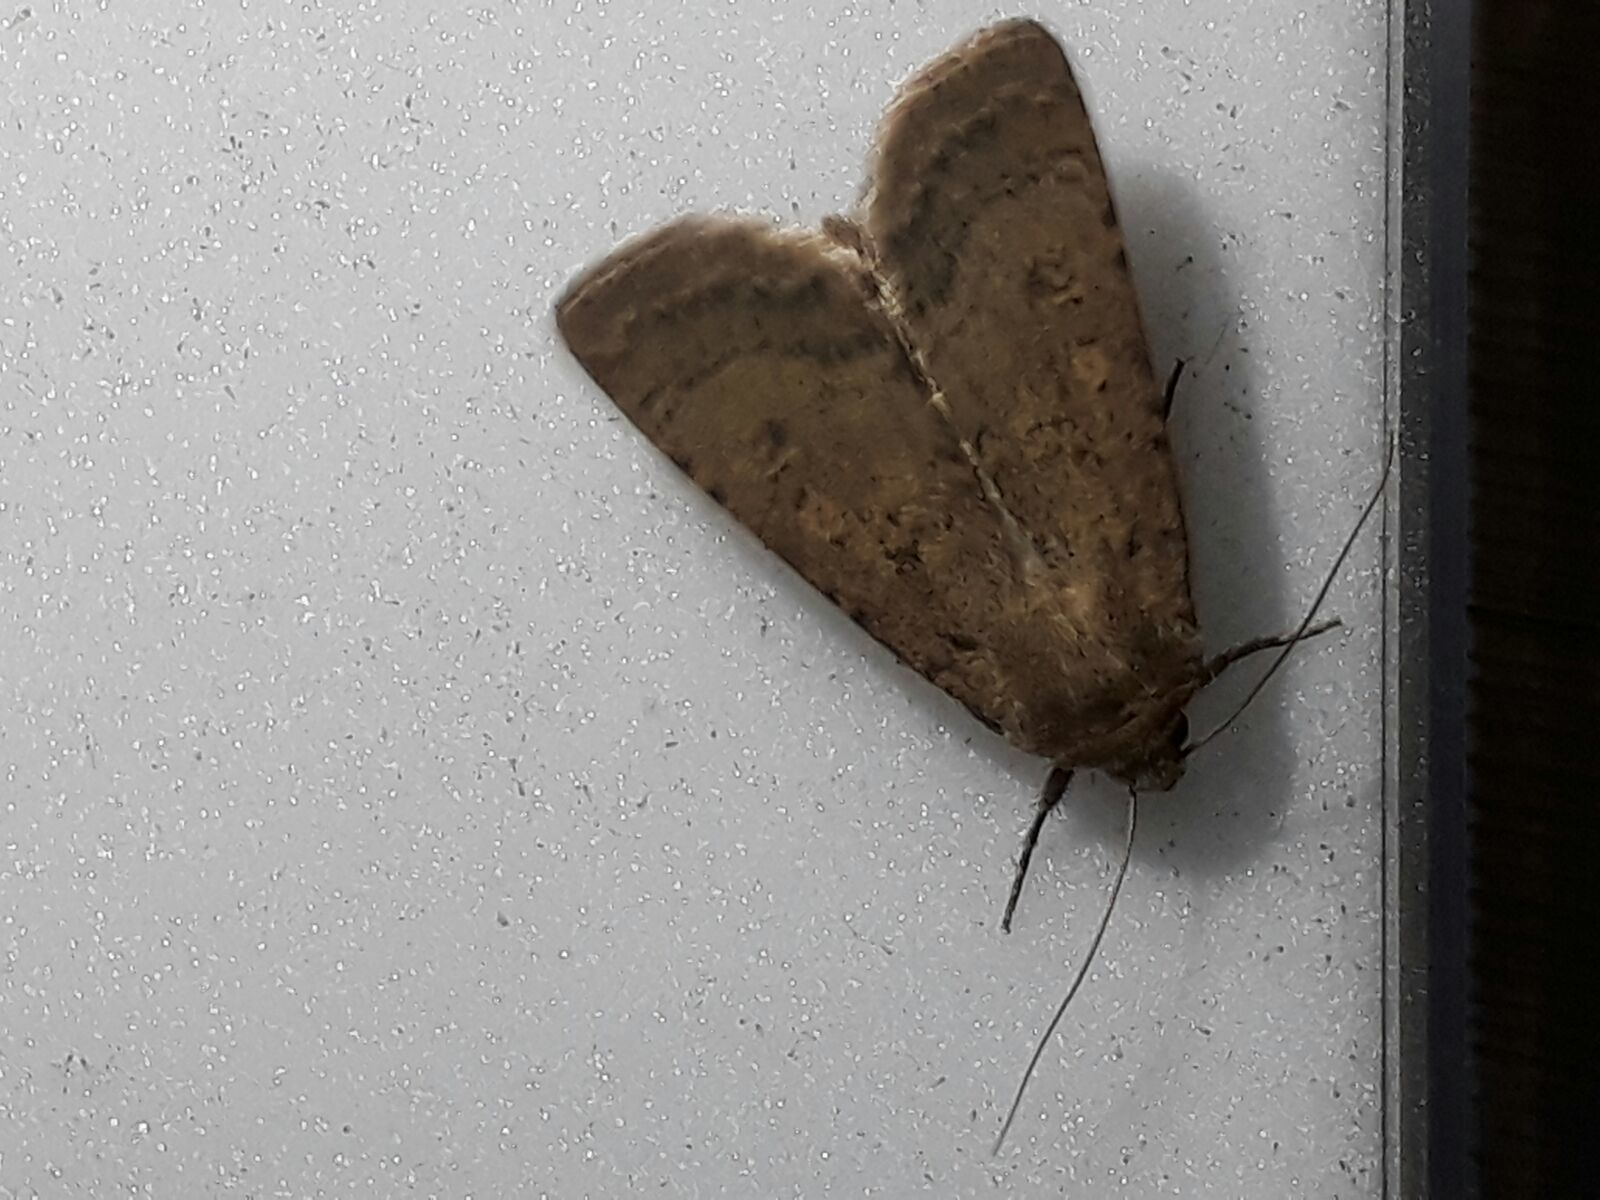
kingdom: Animalia
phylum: Arthropoda
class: Insecta
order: Lepidoptera
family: Noctuidae
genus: Rhyacia
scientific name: Rhyacia simulans
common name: Dotted rustic
